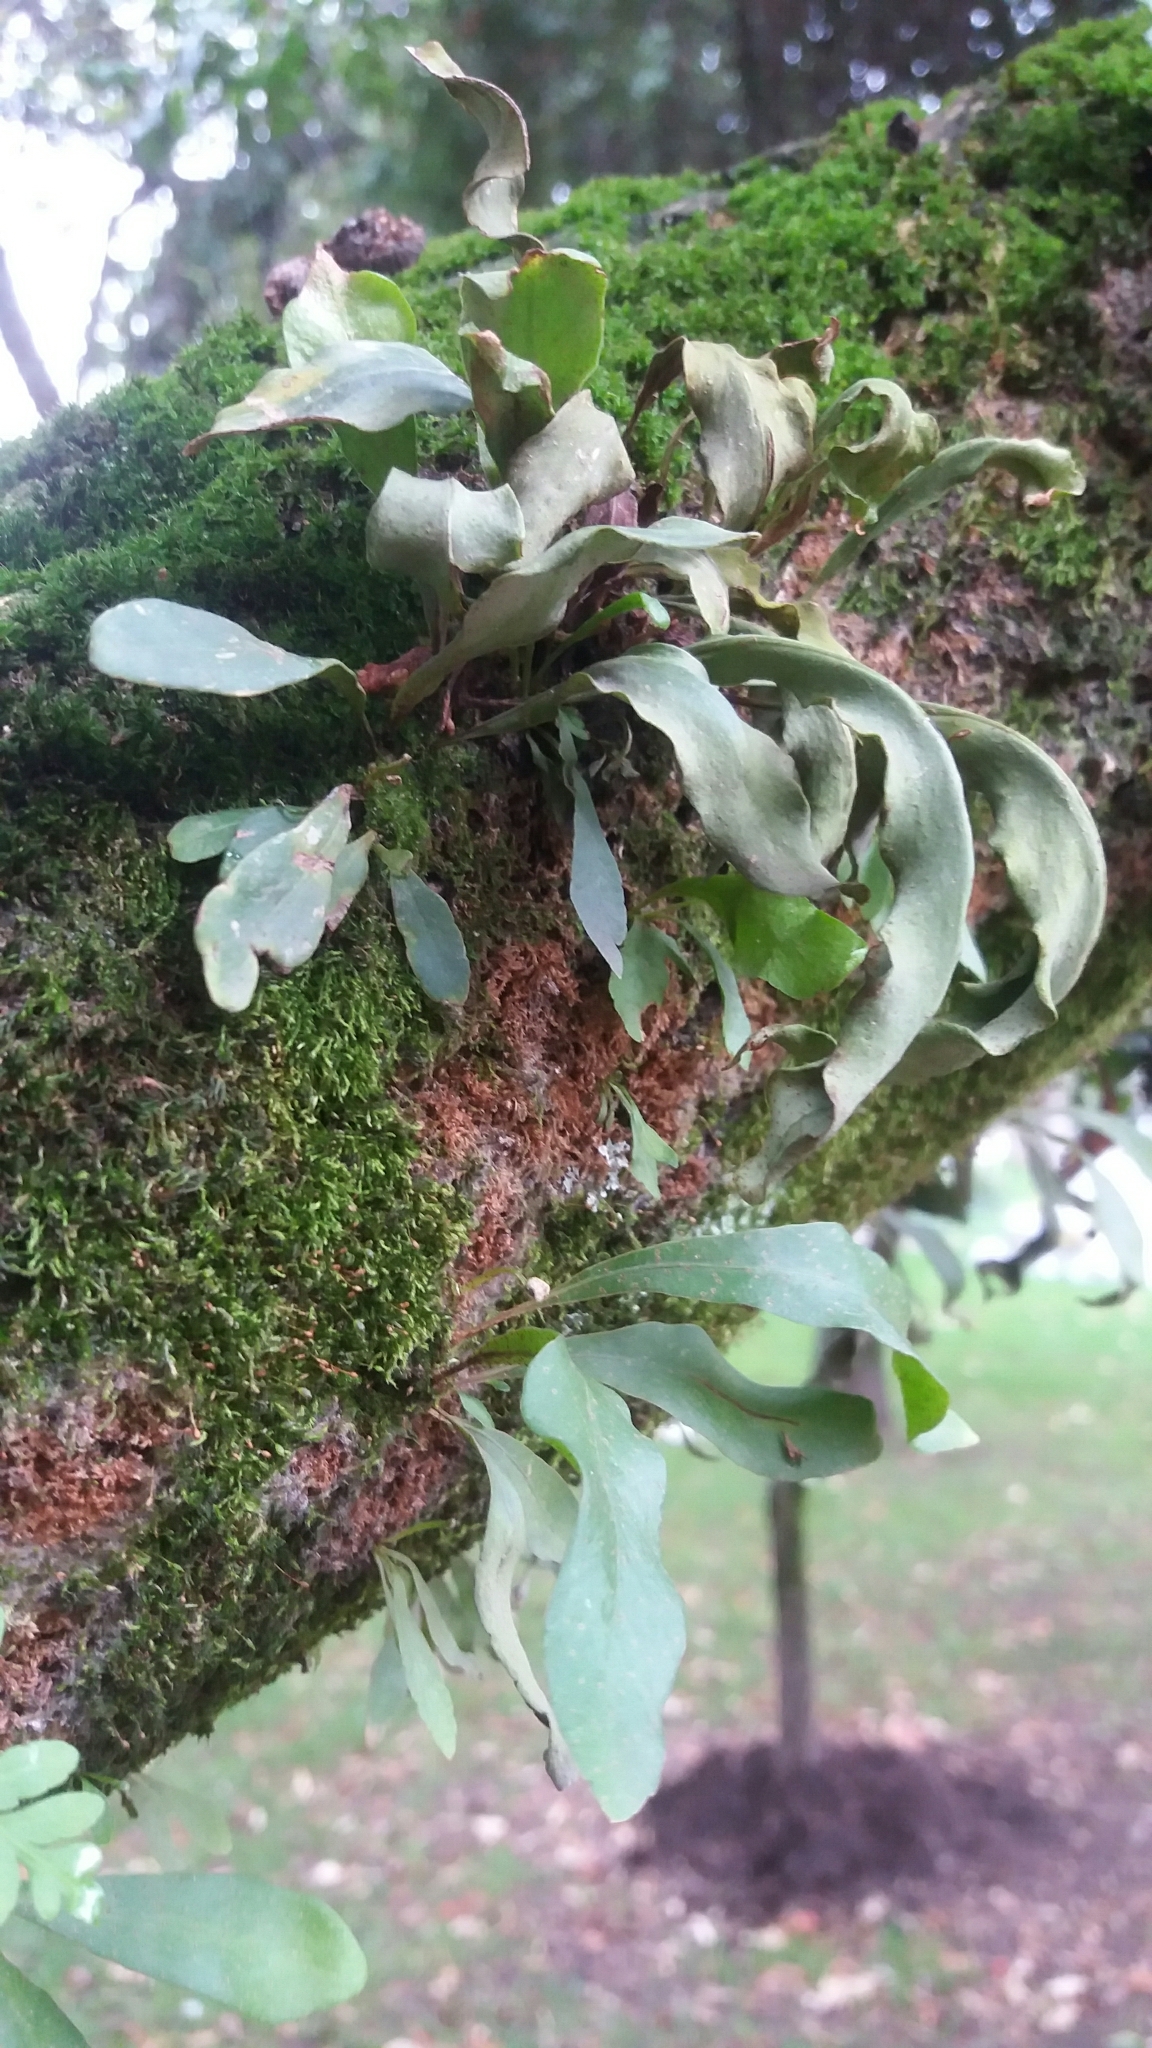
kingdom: Plantae
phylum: Tracheophyta
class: Polypodiopsida
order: Polypodiales
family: Polypodiaceae
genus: Pleopeltis
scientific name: Pleopeltis macrocarpa
